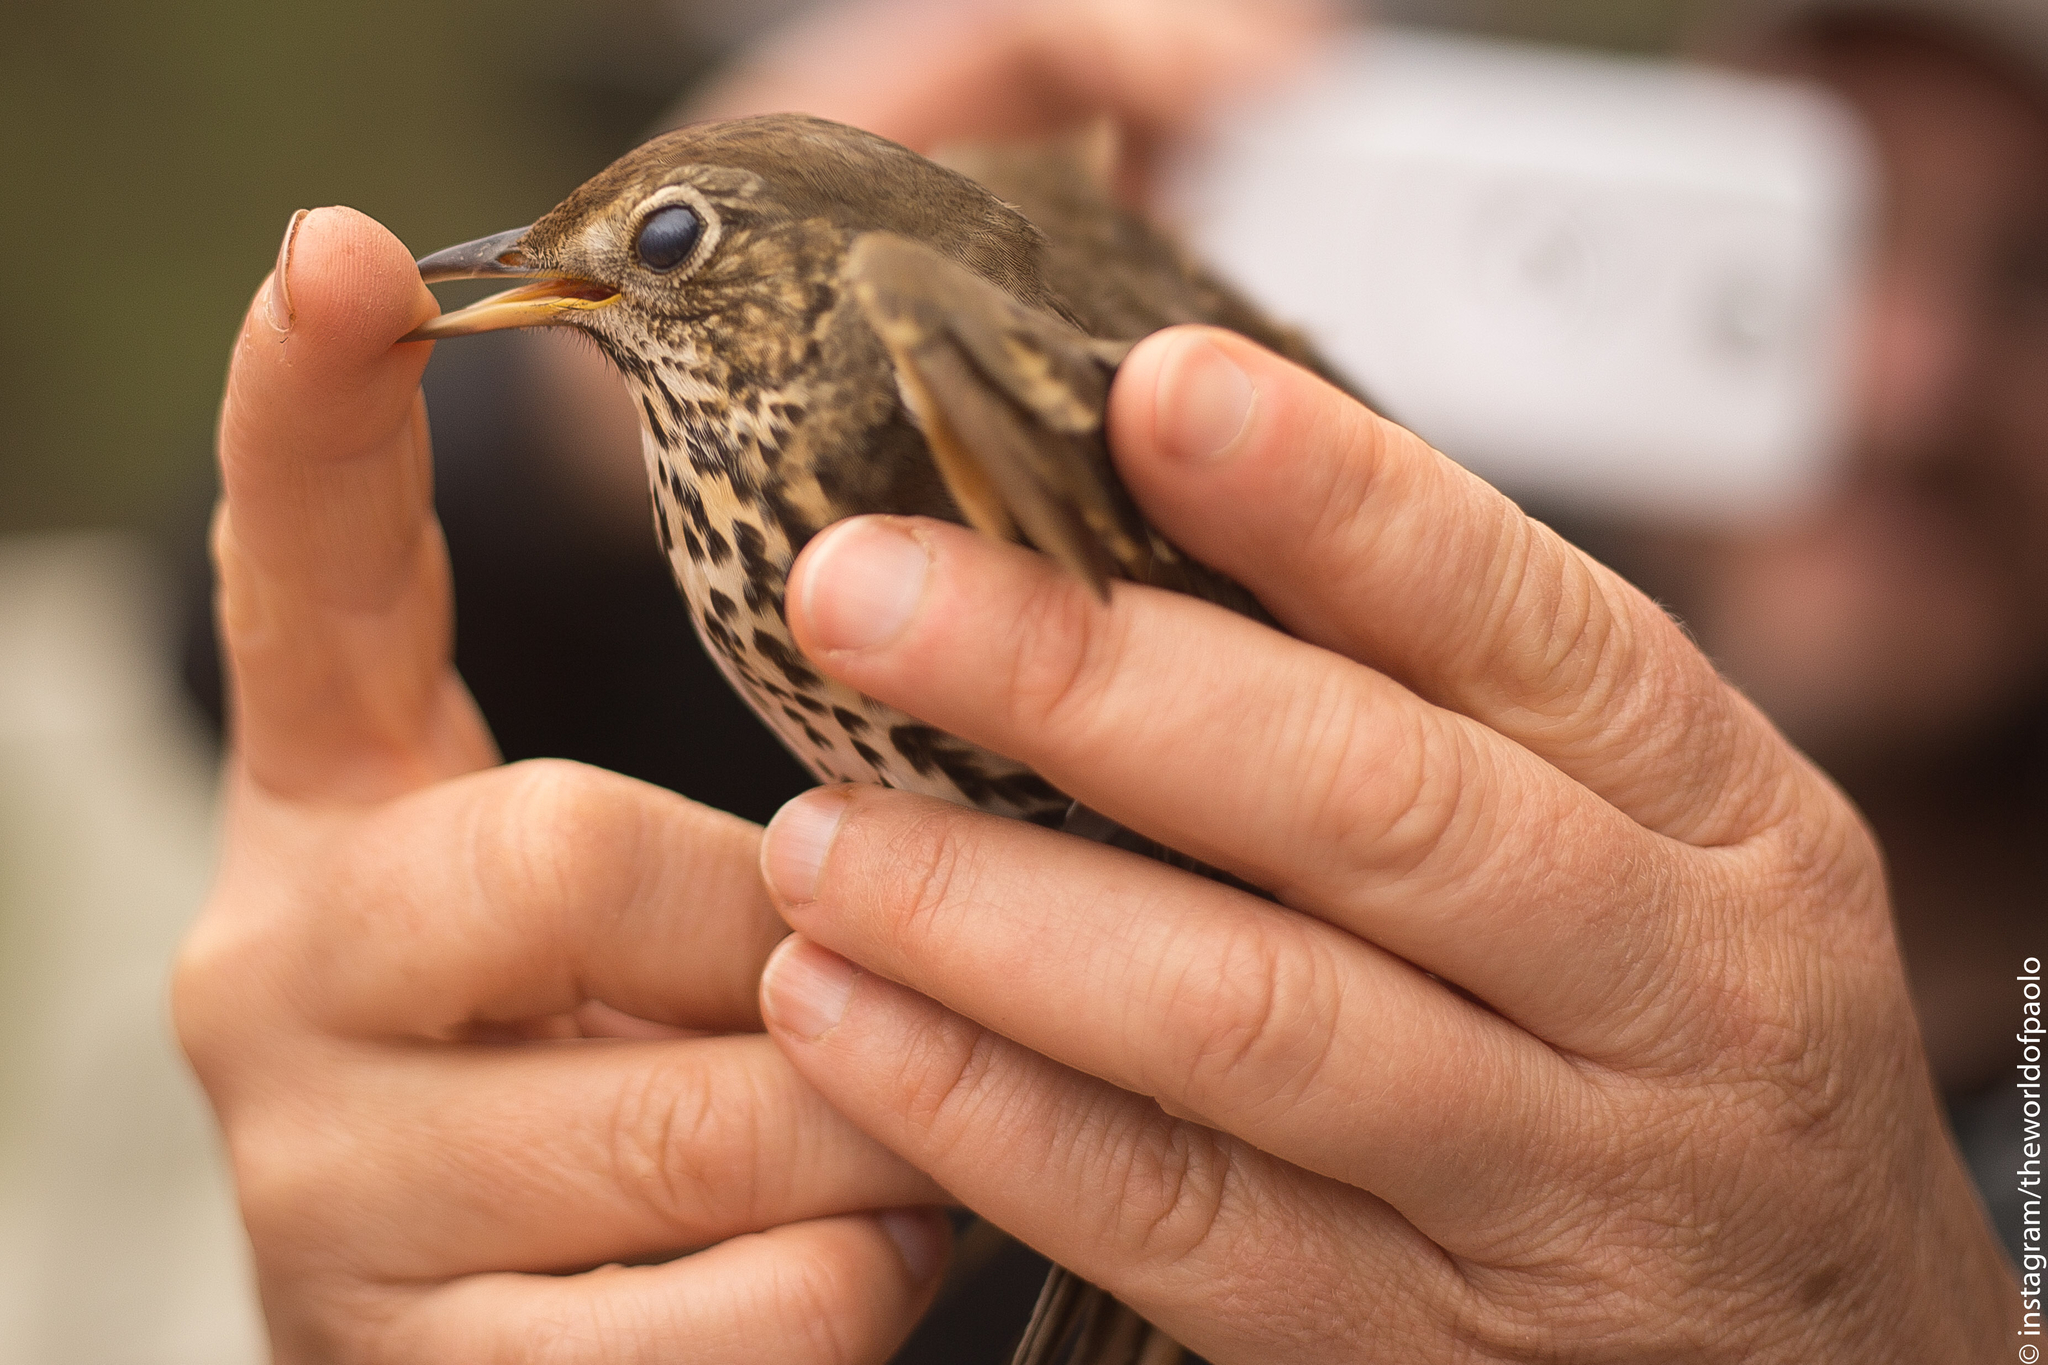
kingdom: Animalia
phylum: Chordata
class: Aves
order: Passeriformes
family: Turdidae
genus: Turdus
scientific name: Turdus philomelos
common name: Song thrush
